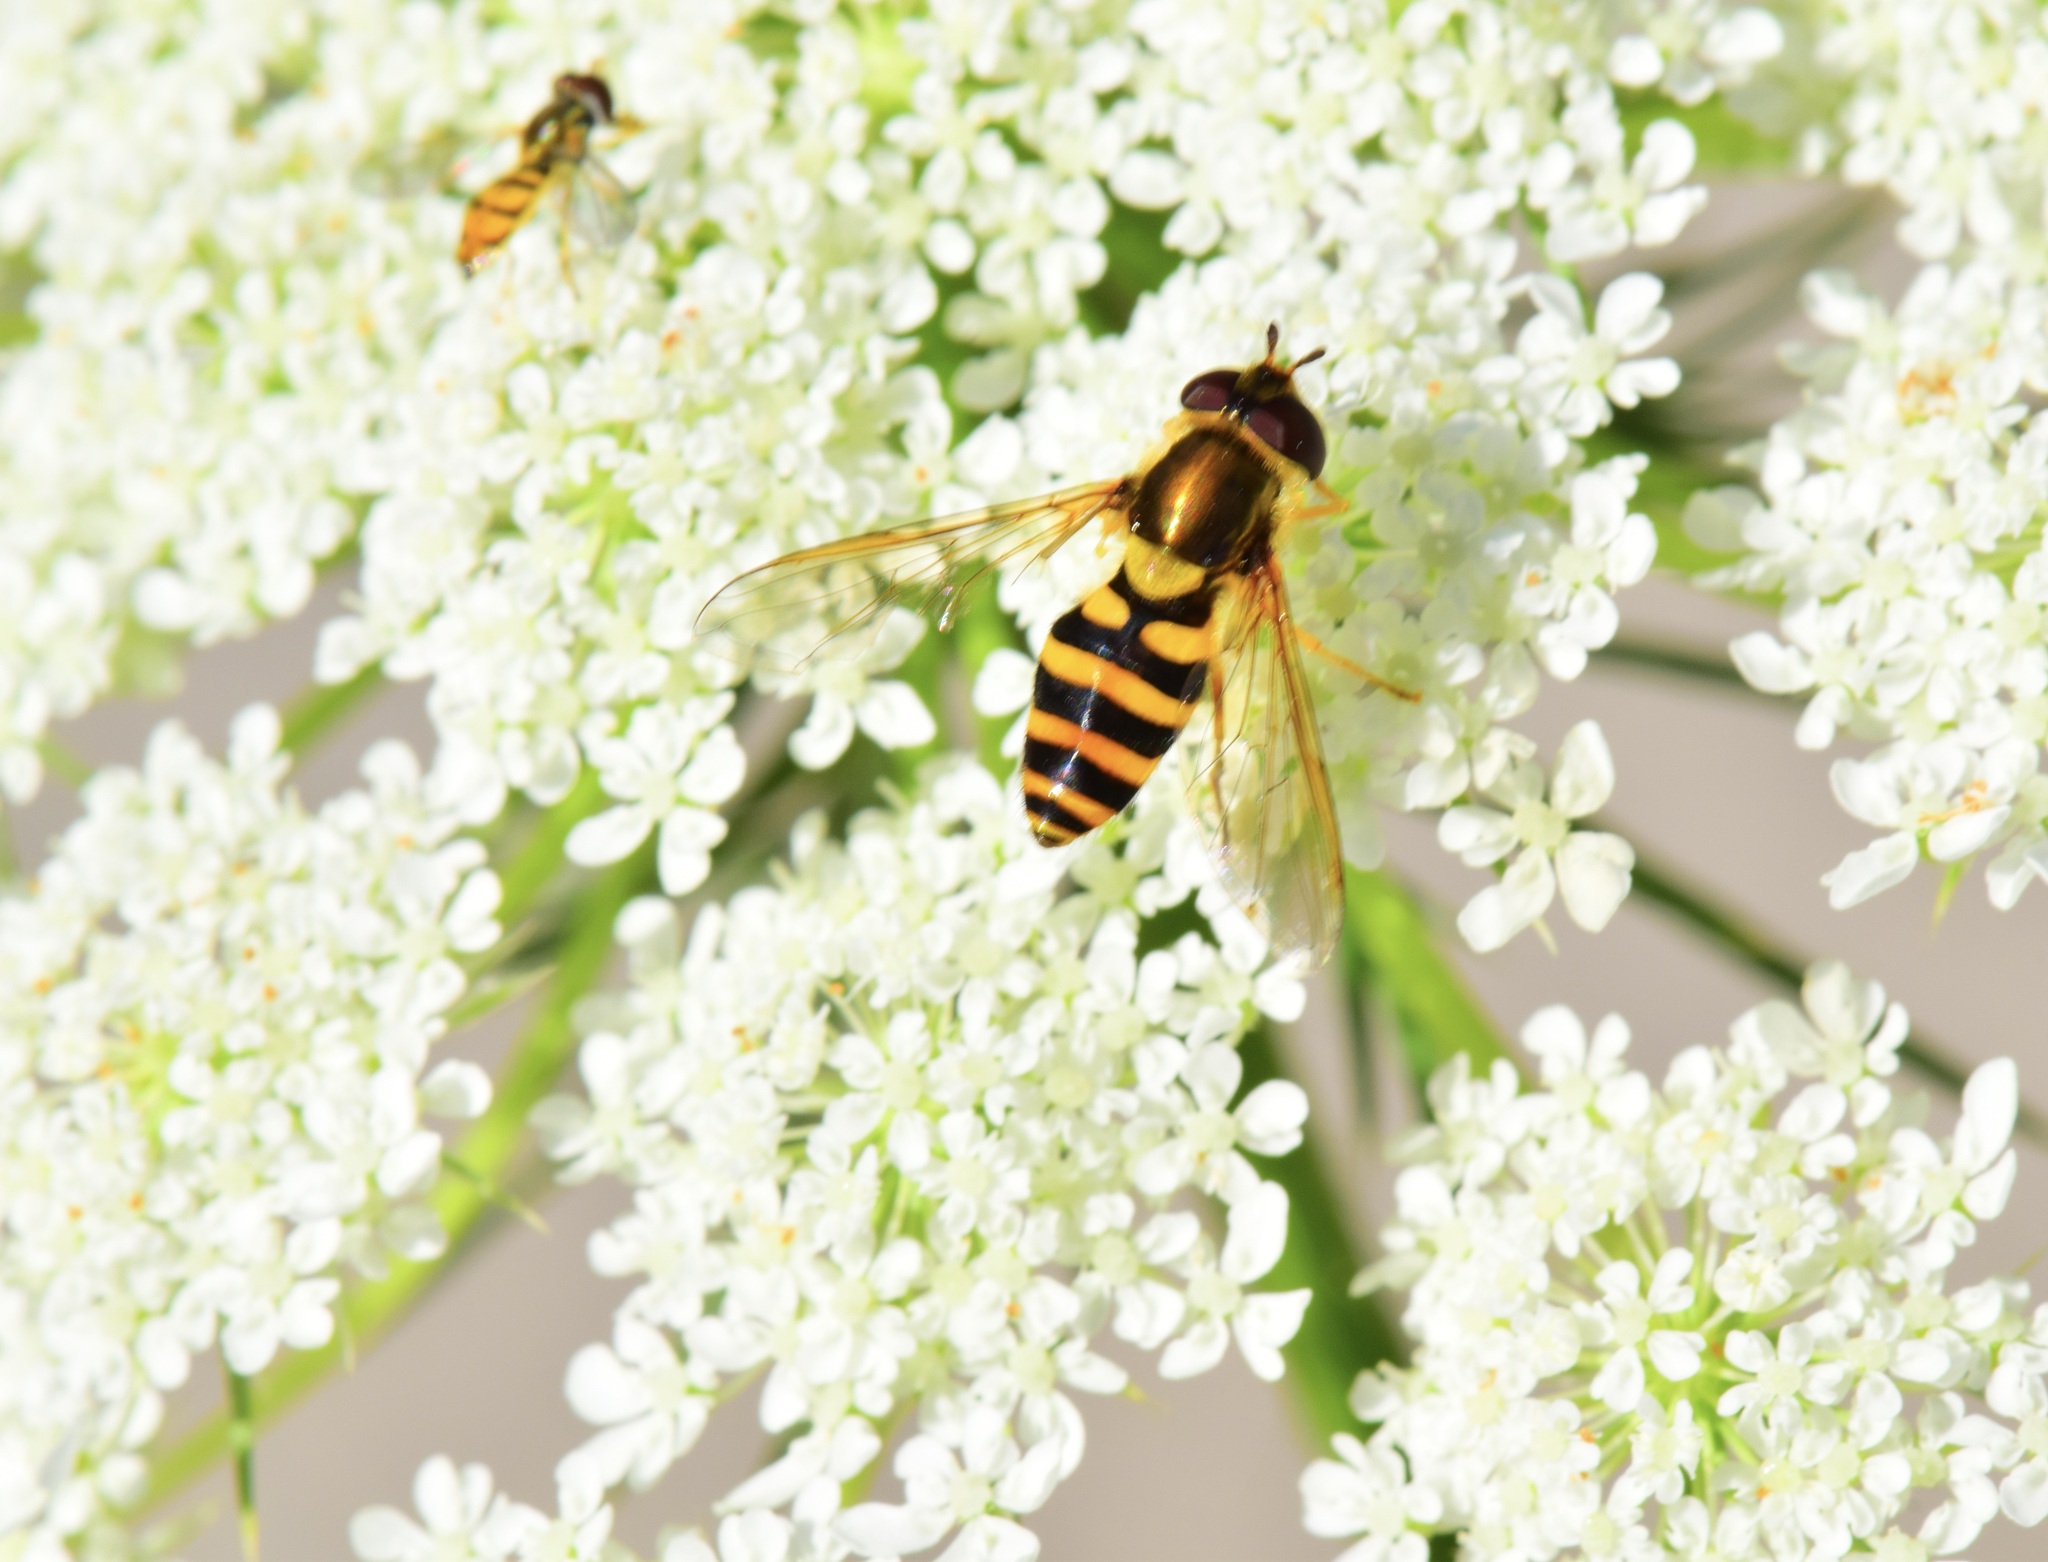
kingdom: Animalia
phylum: Arthropoda
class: Insecta
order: Diptera
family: Syrphidae
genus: Syrphus
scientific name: Syrphus rectus
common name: Yellow-legged flower fly
